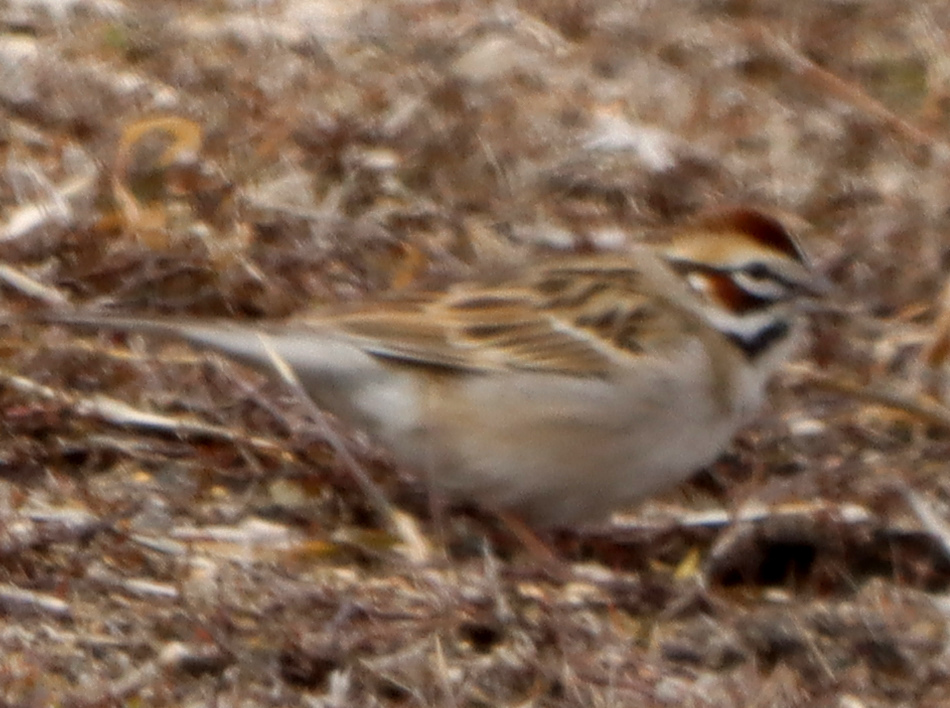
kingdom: Animalia
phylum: Chordata
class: Aves
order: Passeriformes
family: Passerellidae
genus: Chondestes
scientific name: Chondestes grammacus
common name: Lark sparrow
